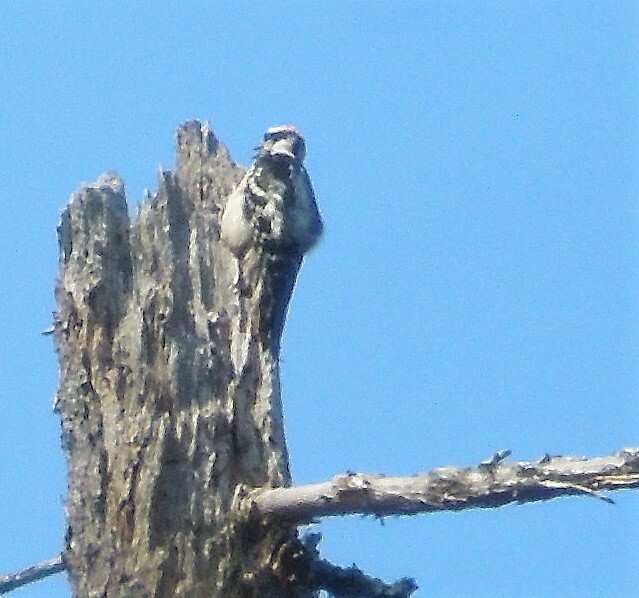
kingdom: Animalia
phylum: Chordata
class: Aves
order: Piciformes
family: Picidae
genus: Dryobates
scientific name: Dryobates pubescens
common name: Downy woodpecker
